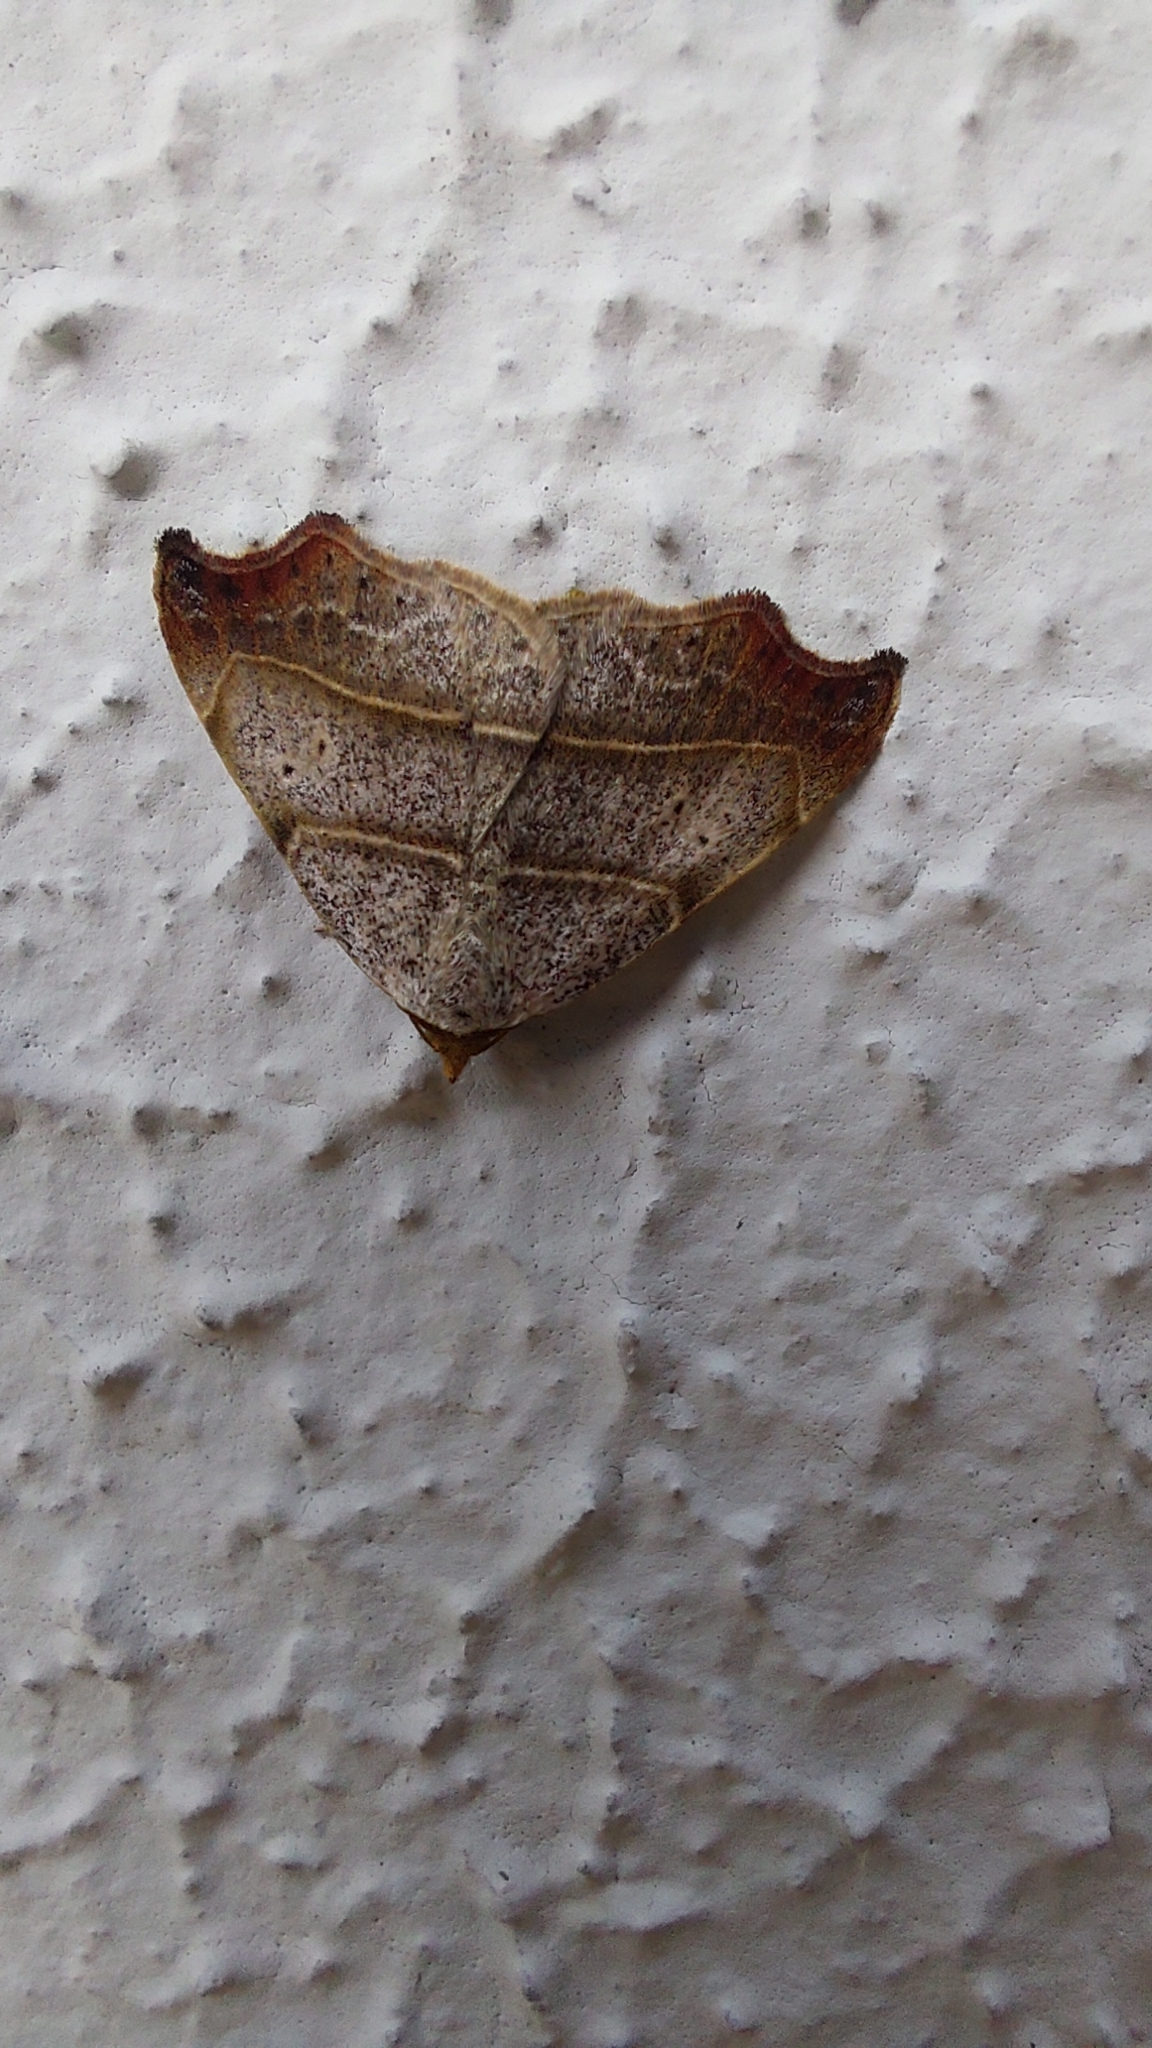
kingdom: Animalia
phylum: Arthropoda
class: Insecta
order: Lepidoptera
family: Erebidae
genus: Laspeyria
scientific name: Laspeyria flexula
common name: Beautiful hook-tip
